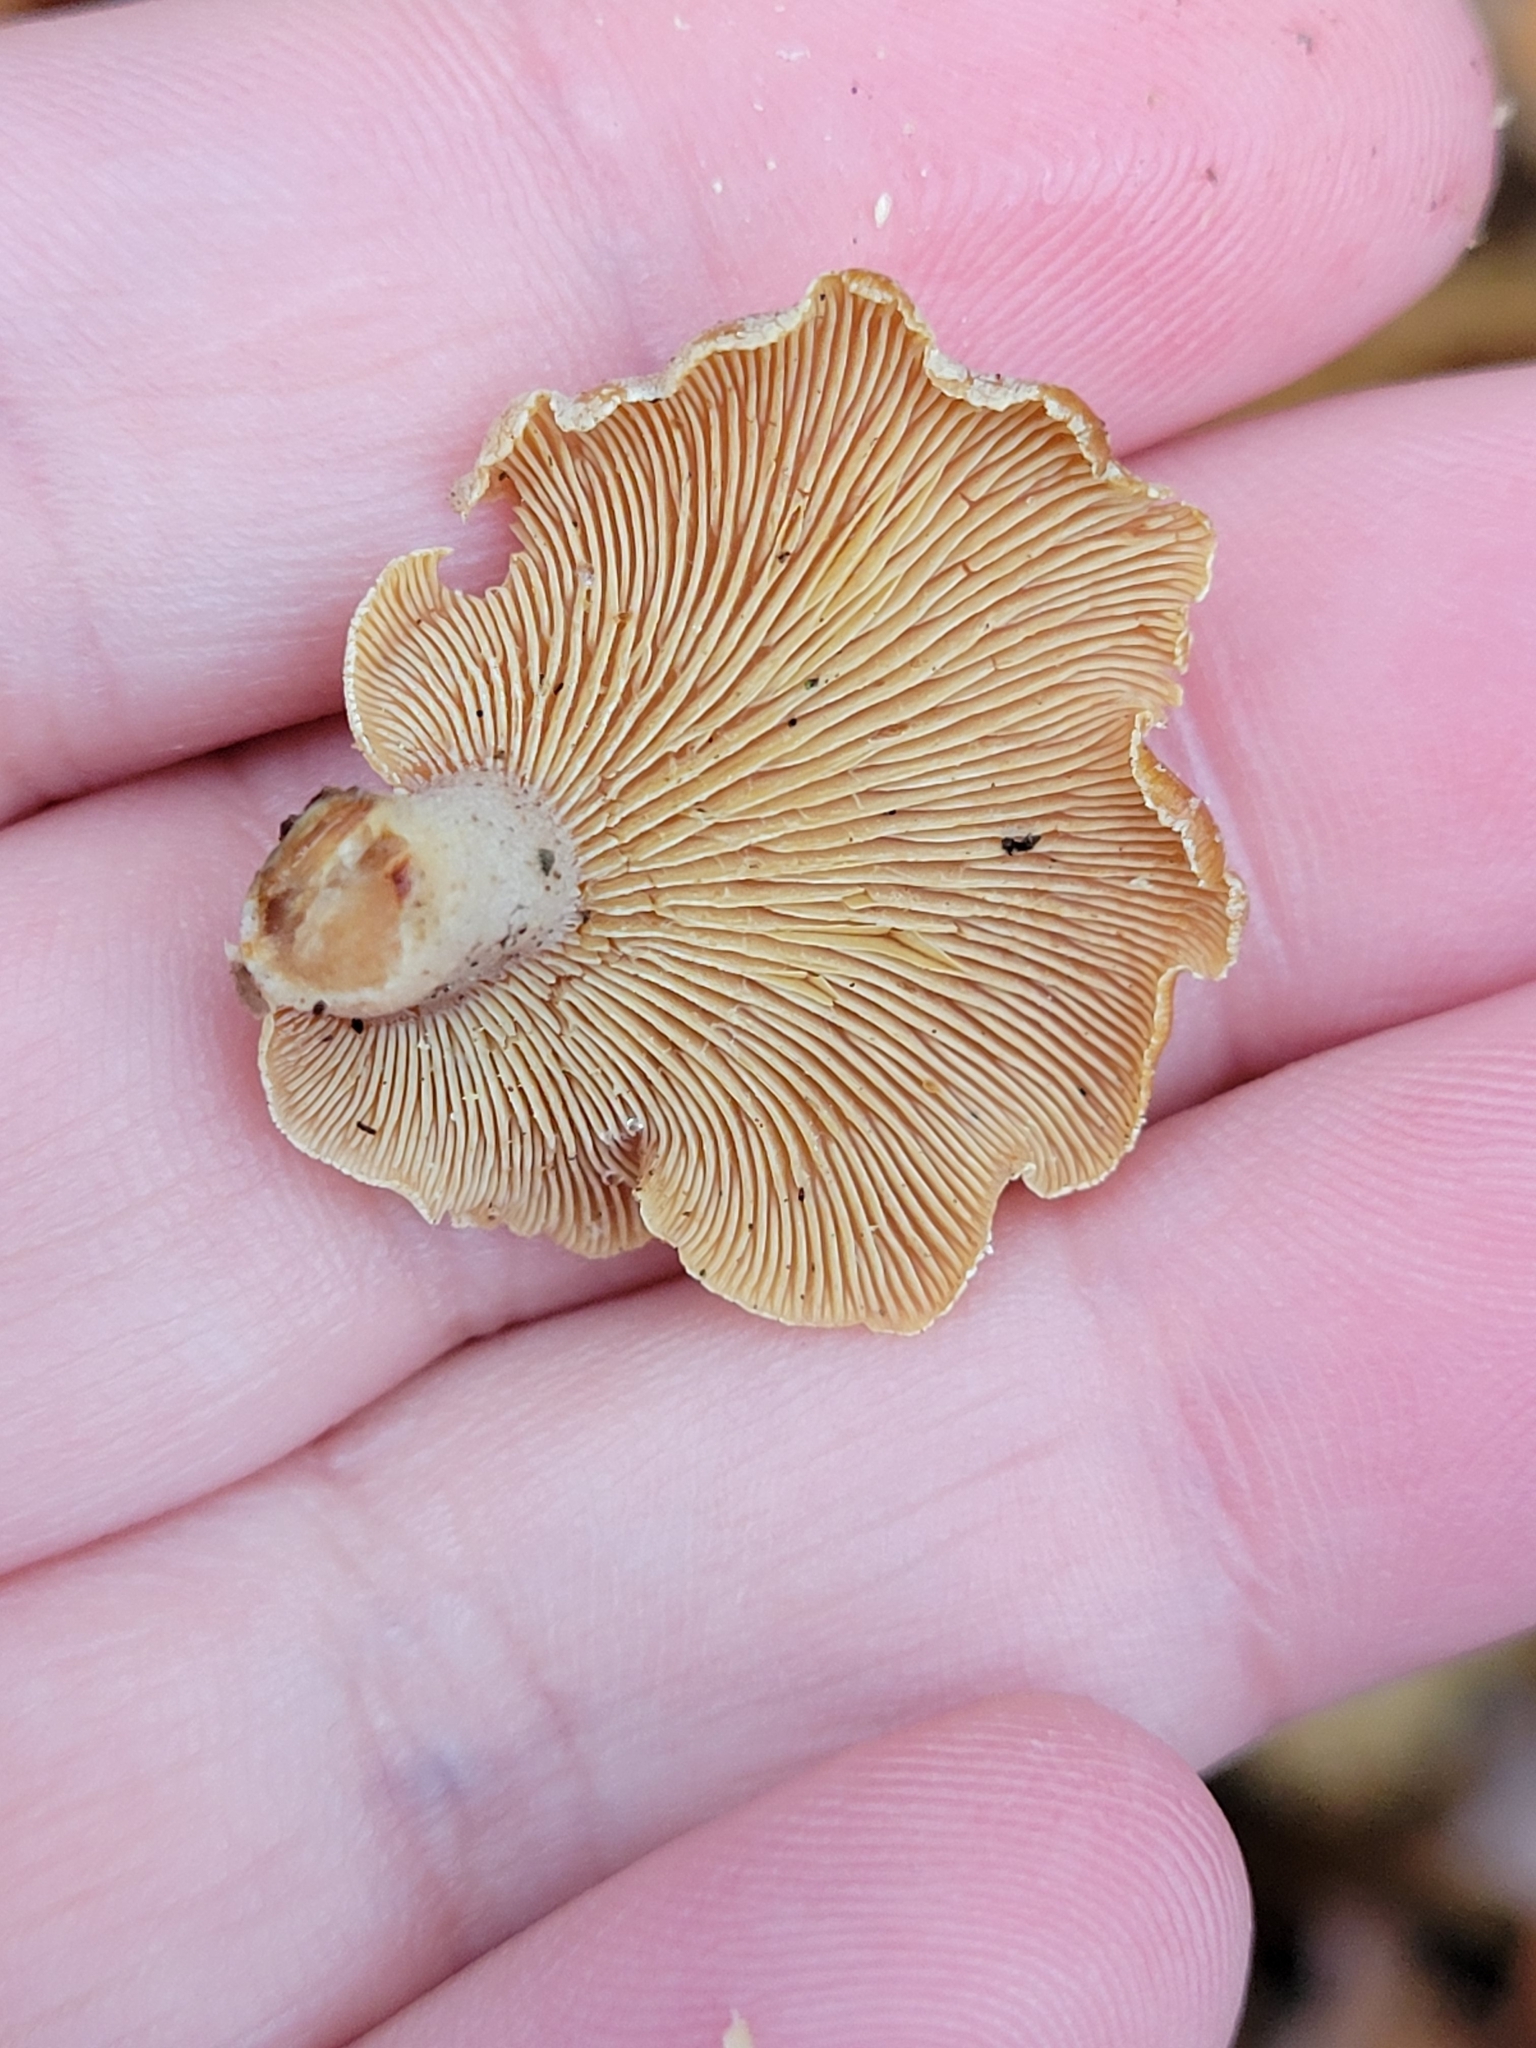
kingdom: Fungi
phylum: Basidiomycota
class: Agaricomycetes
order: Agaricales
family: Mycenaceae
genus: Panellus
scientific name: Panellus stipticus
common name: Bitter oysterling
